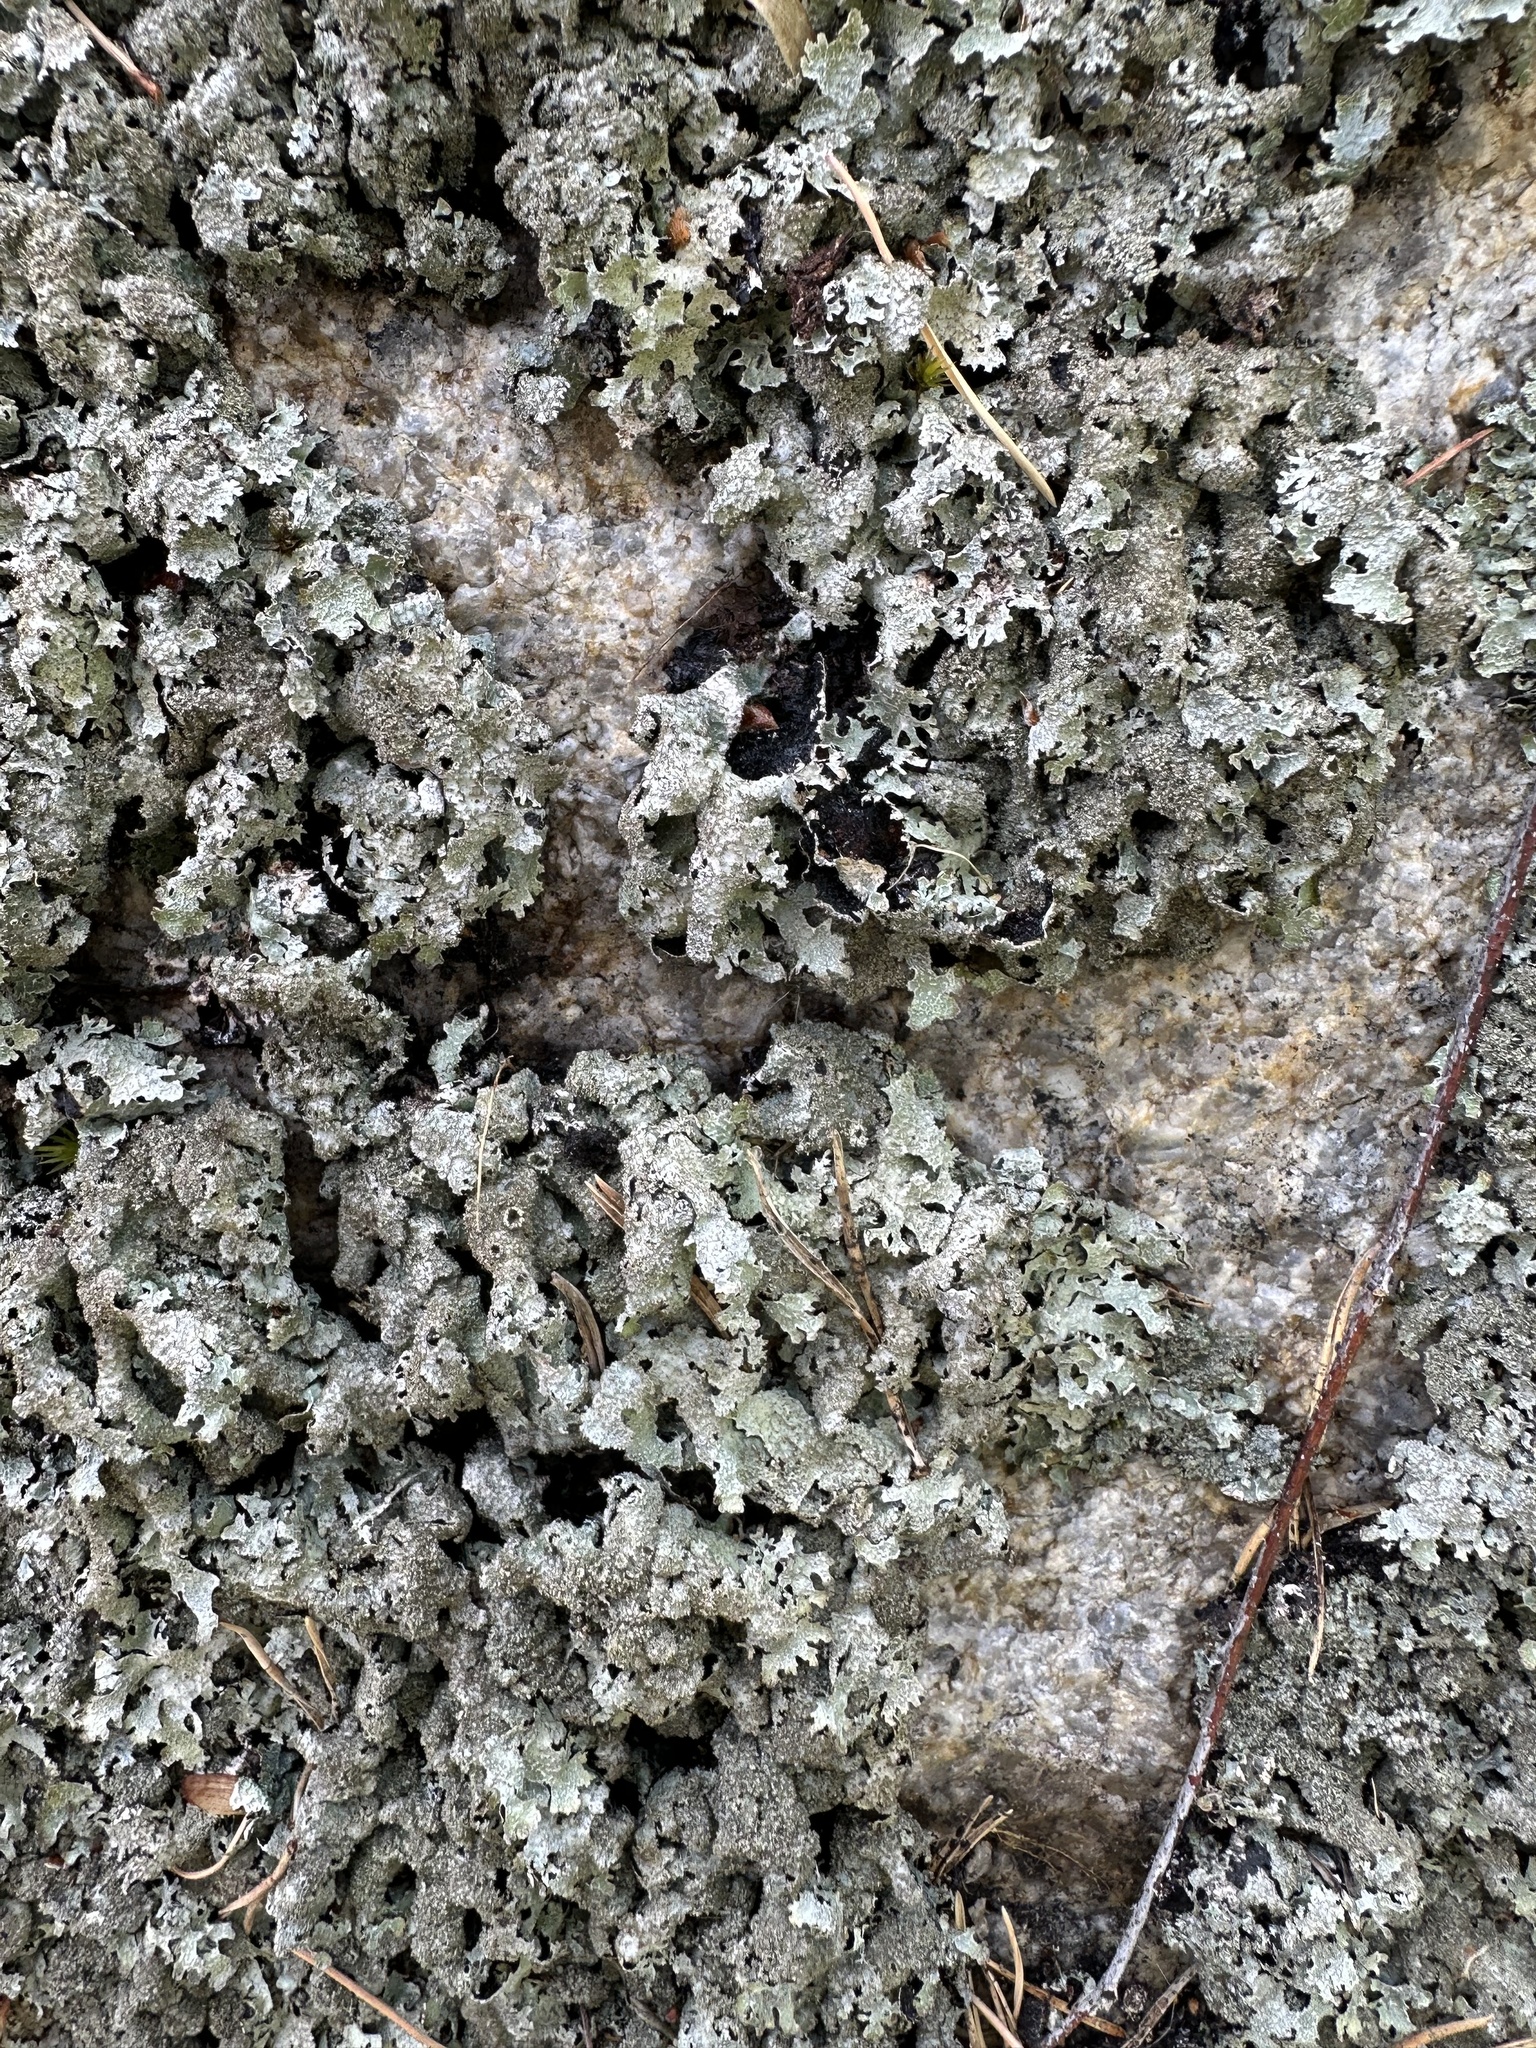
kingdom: Fungi
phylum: Ascomycota
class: Lecanoromycetes
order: Lecanorales
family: Parmeliaceae
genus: Parmelia
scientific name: Parmelia saxatilis
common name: Salted shield lichen
